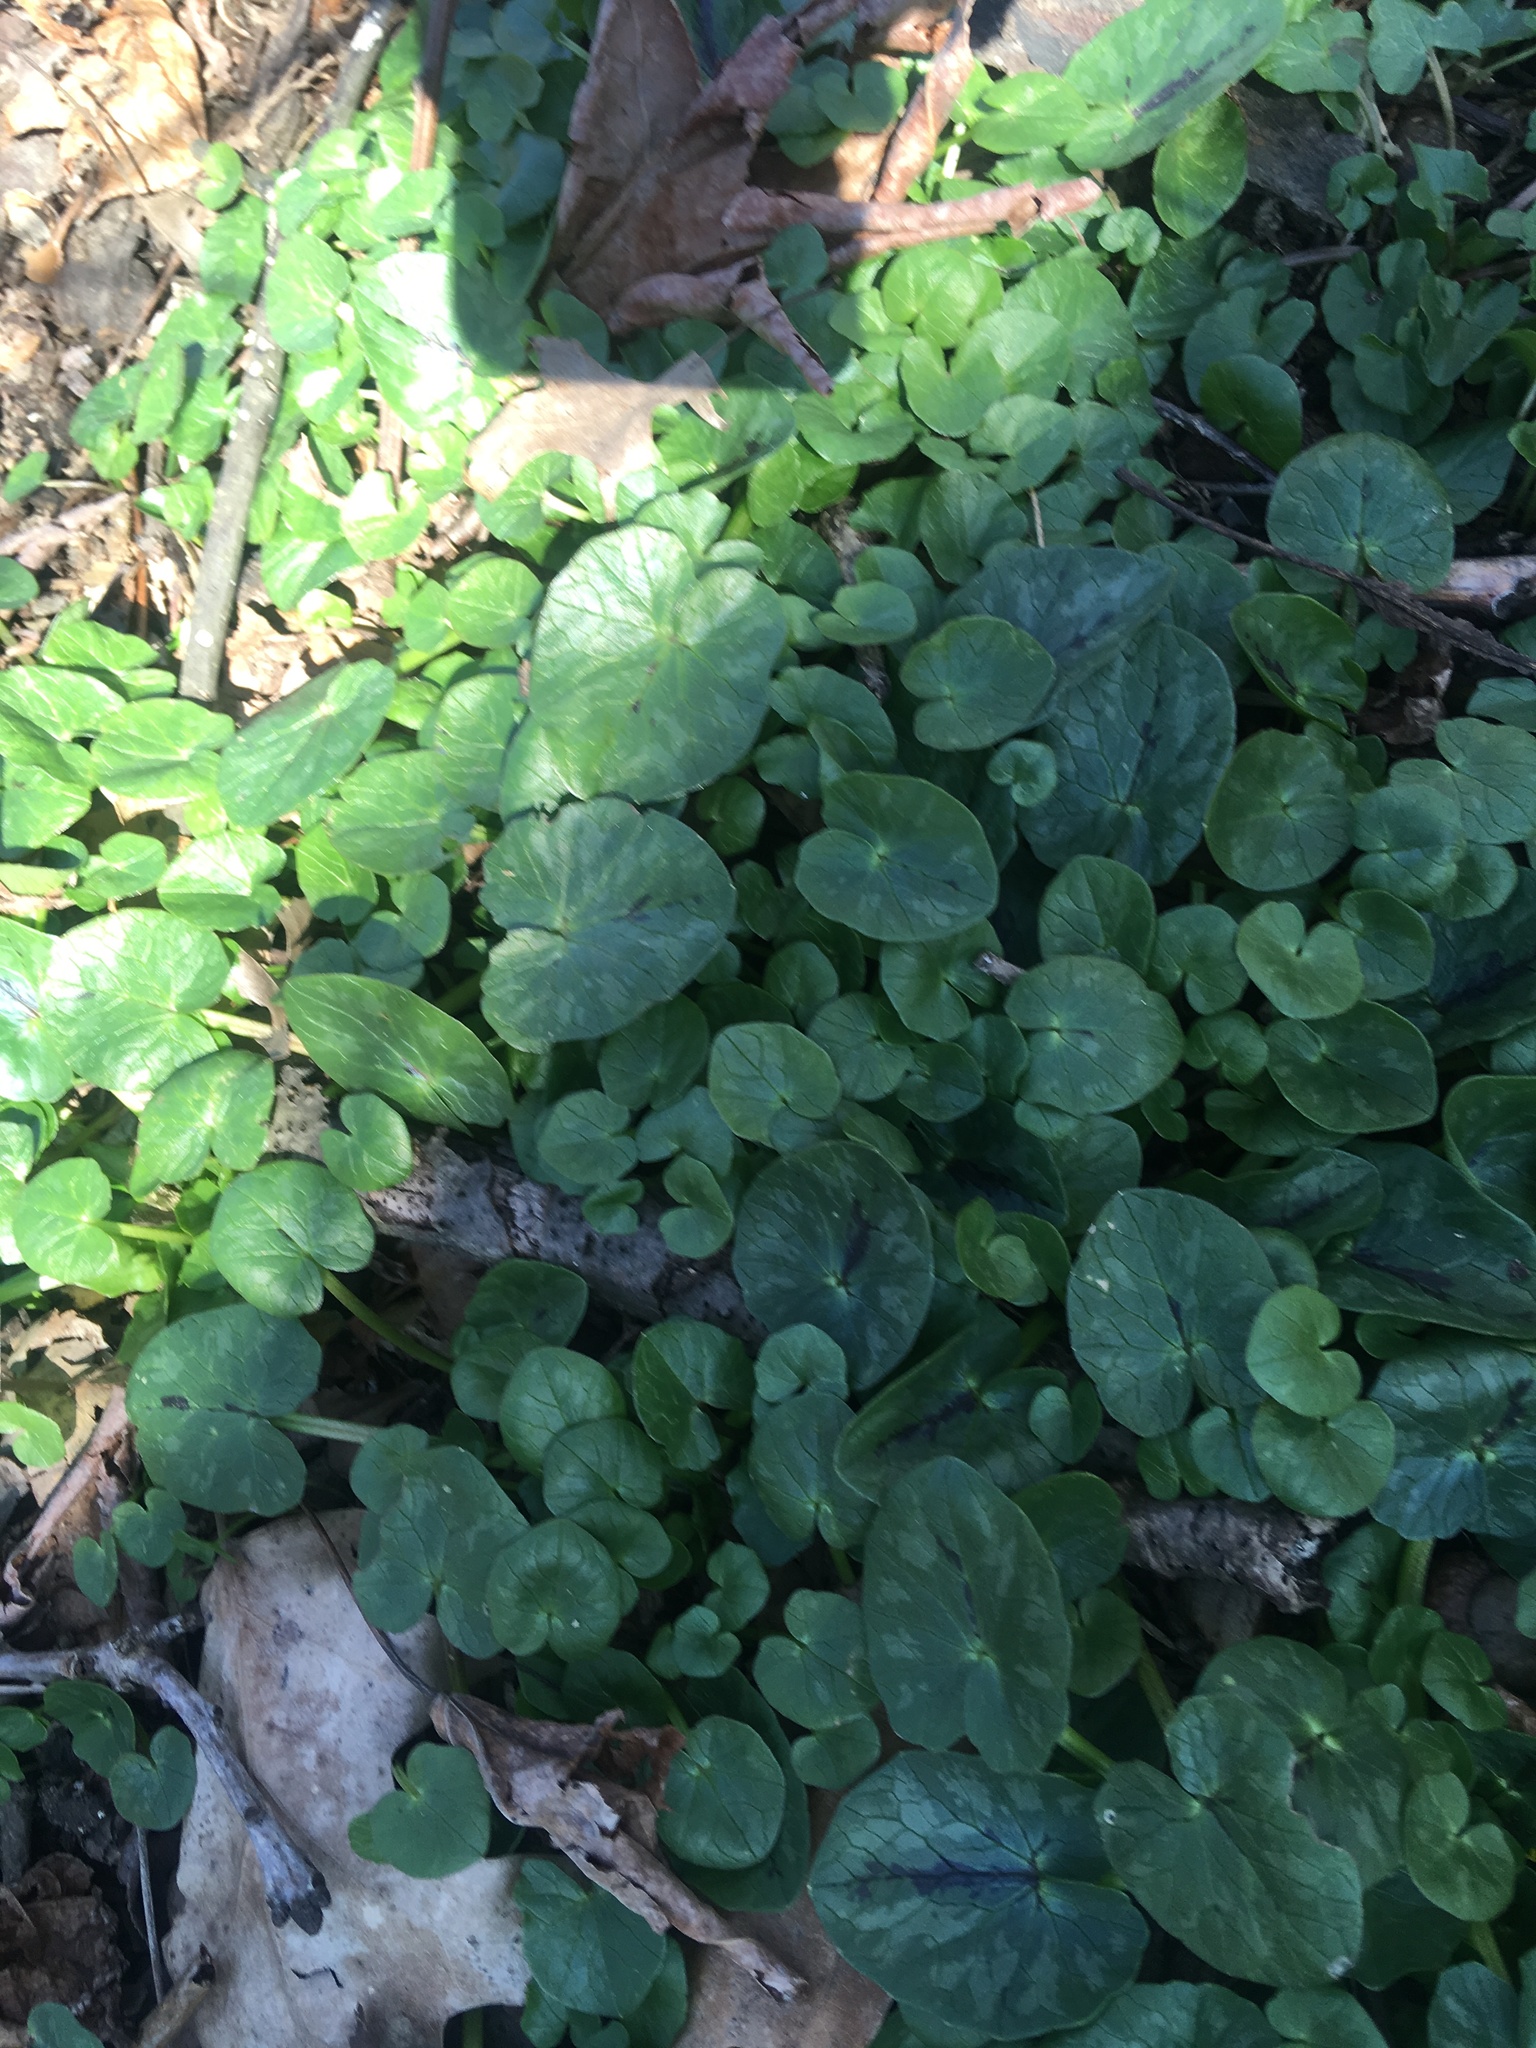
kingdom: Plantae
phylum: Tracheophyta
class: Magnoliopsida
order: Ranunculales
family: Ranunculaceae
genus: Ficaria
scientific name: Ficaria verna
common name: Lesser celandine
